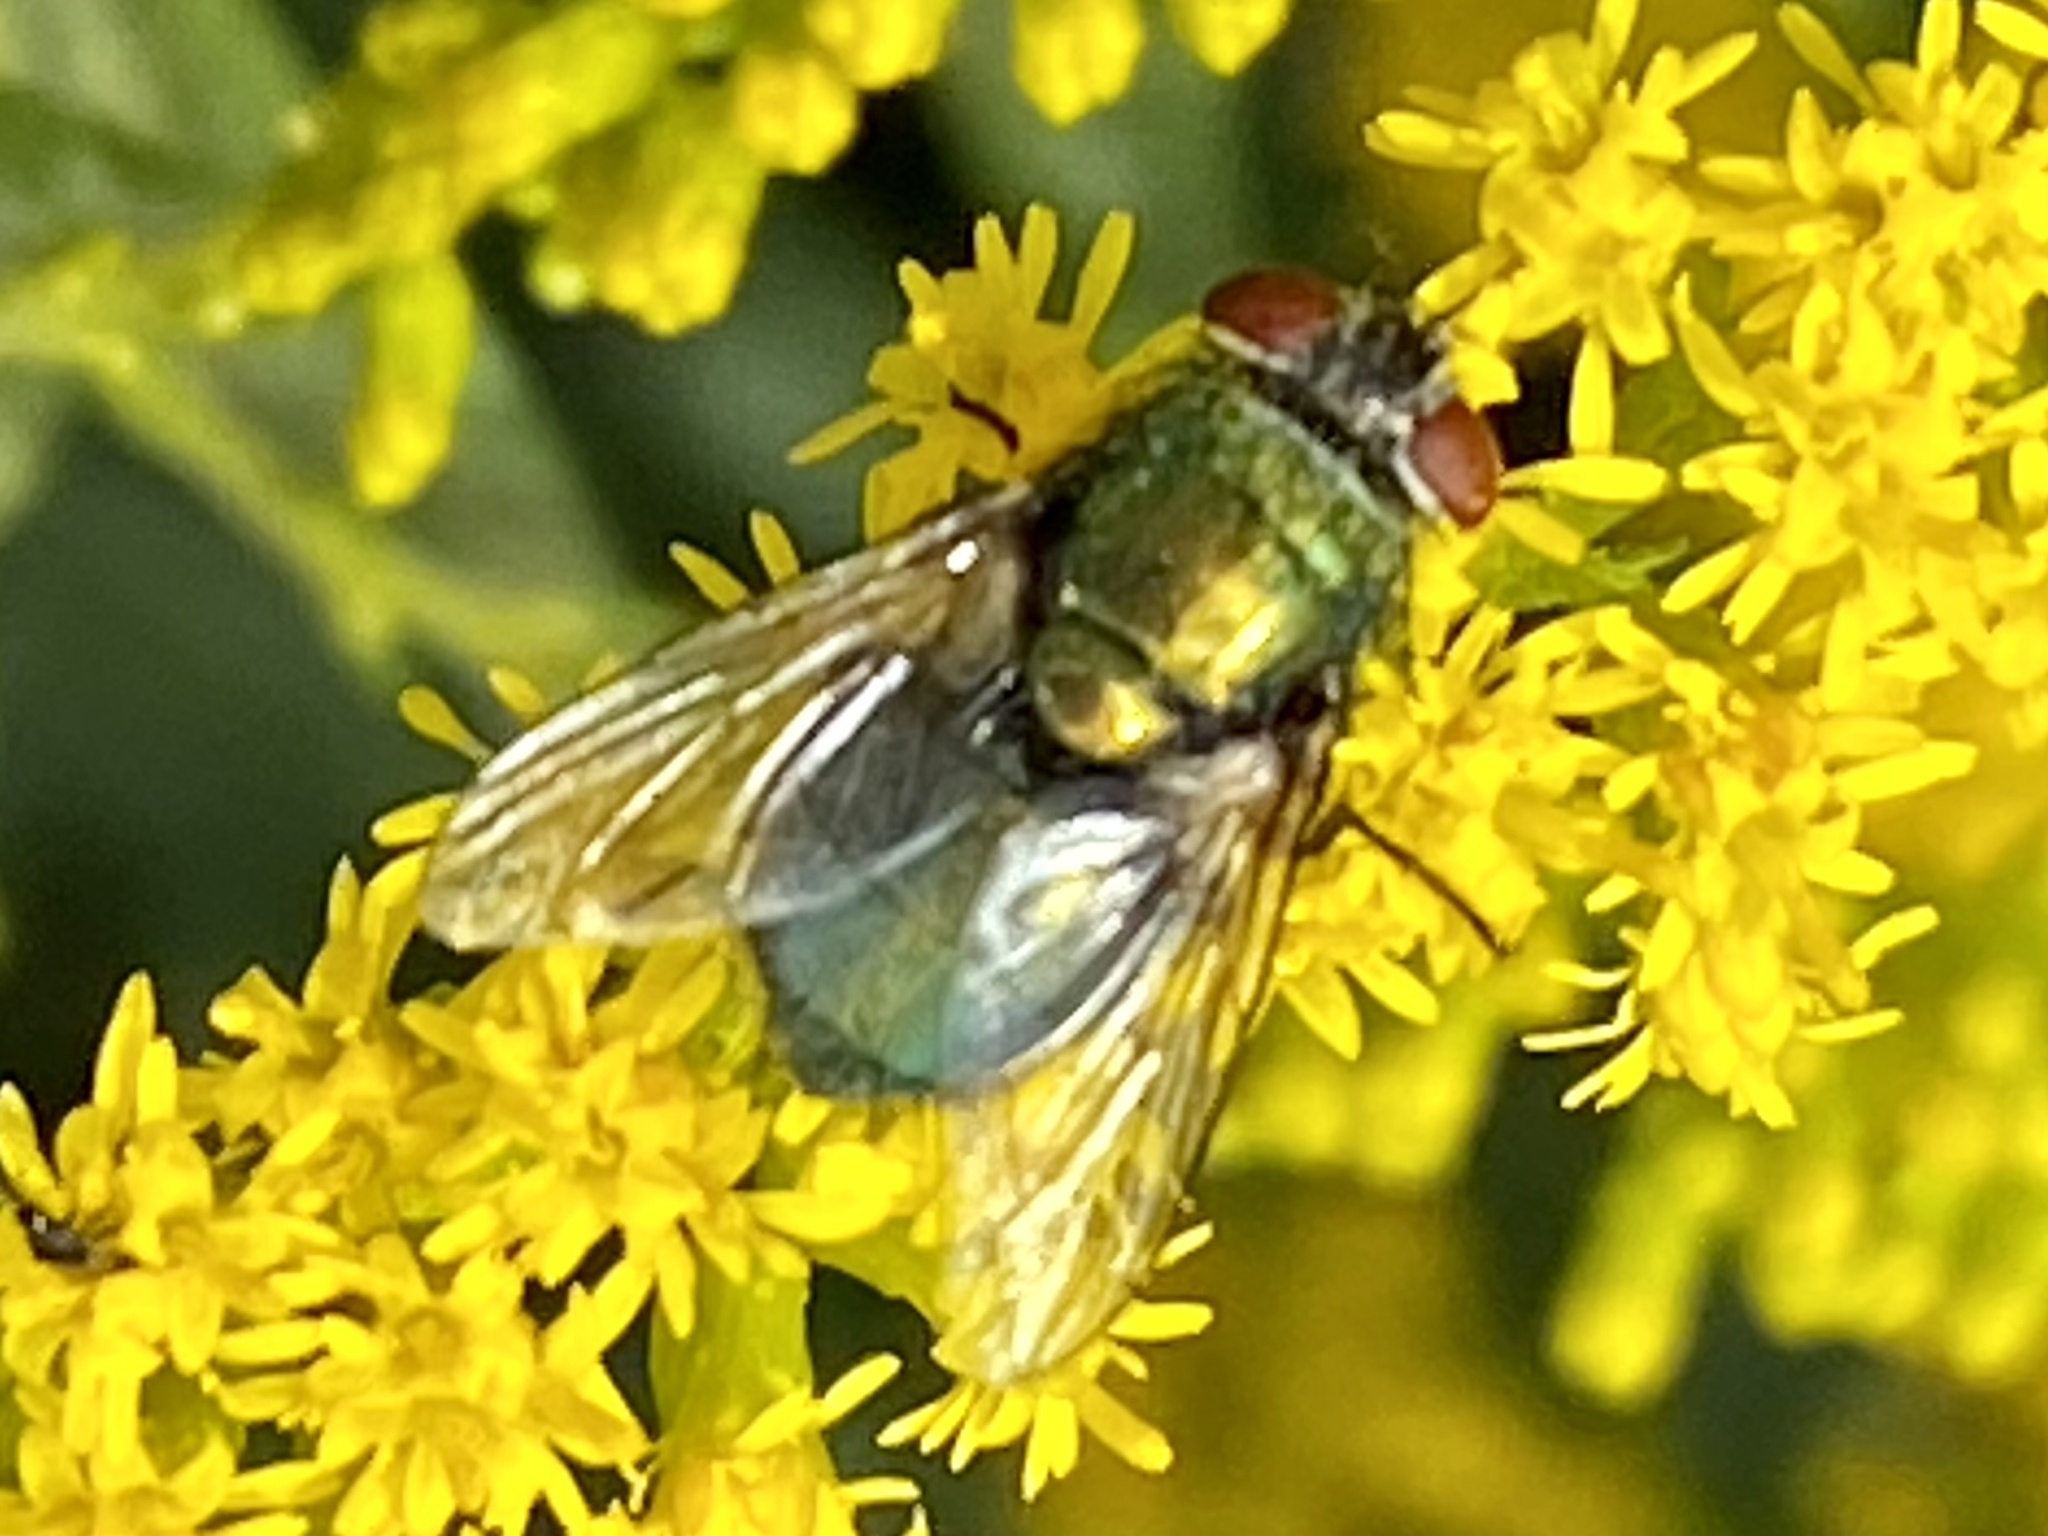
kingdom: Animalia
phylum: Arthropoda
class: Insecta
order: Diptera
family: Calliphoridae
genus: Lucilia
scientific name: Lucilia caeruleiviridis
